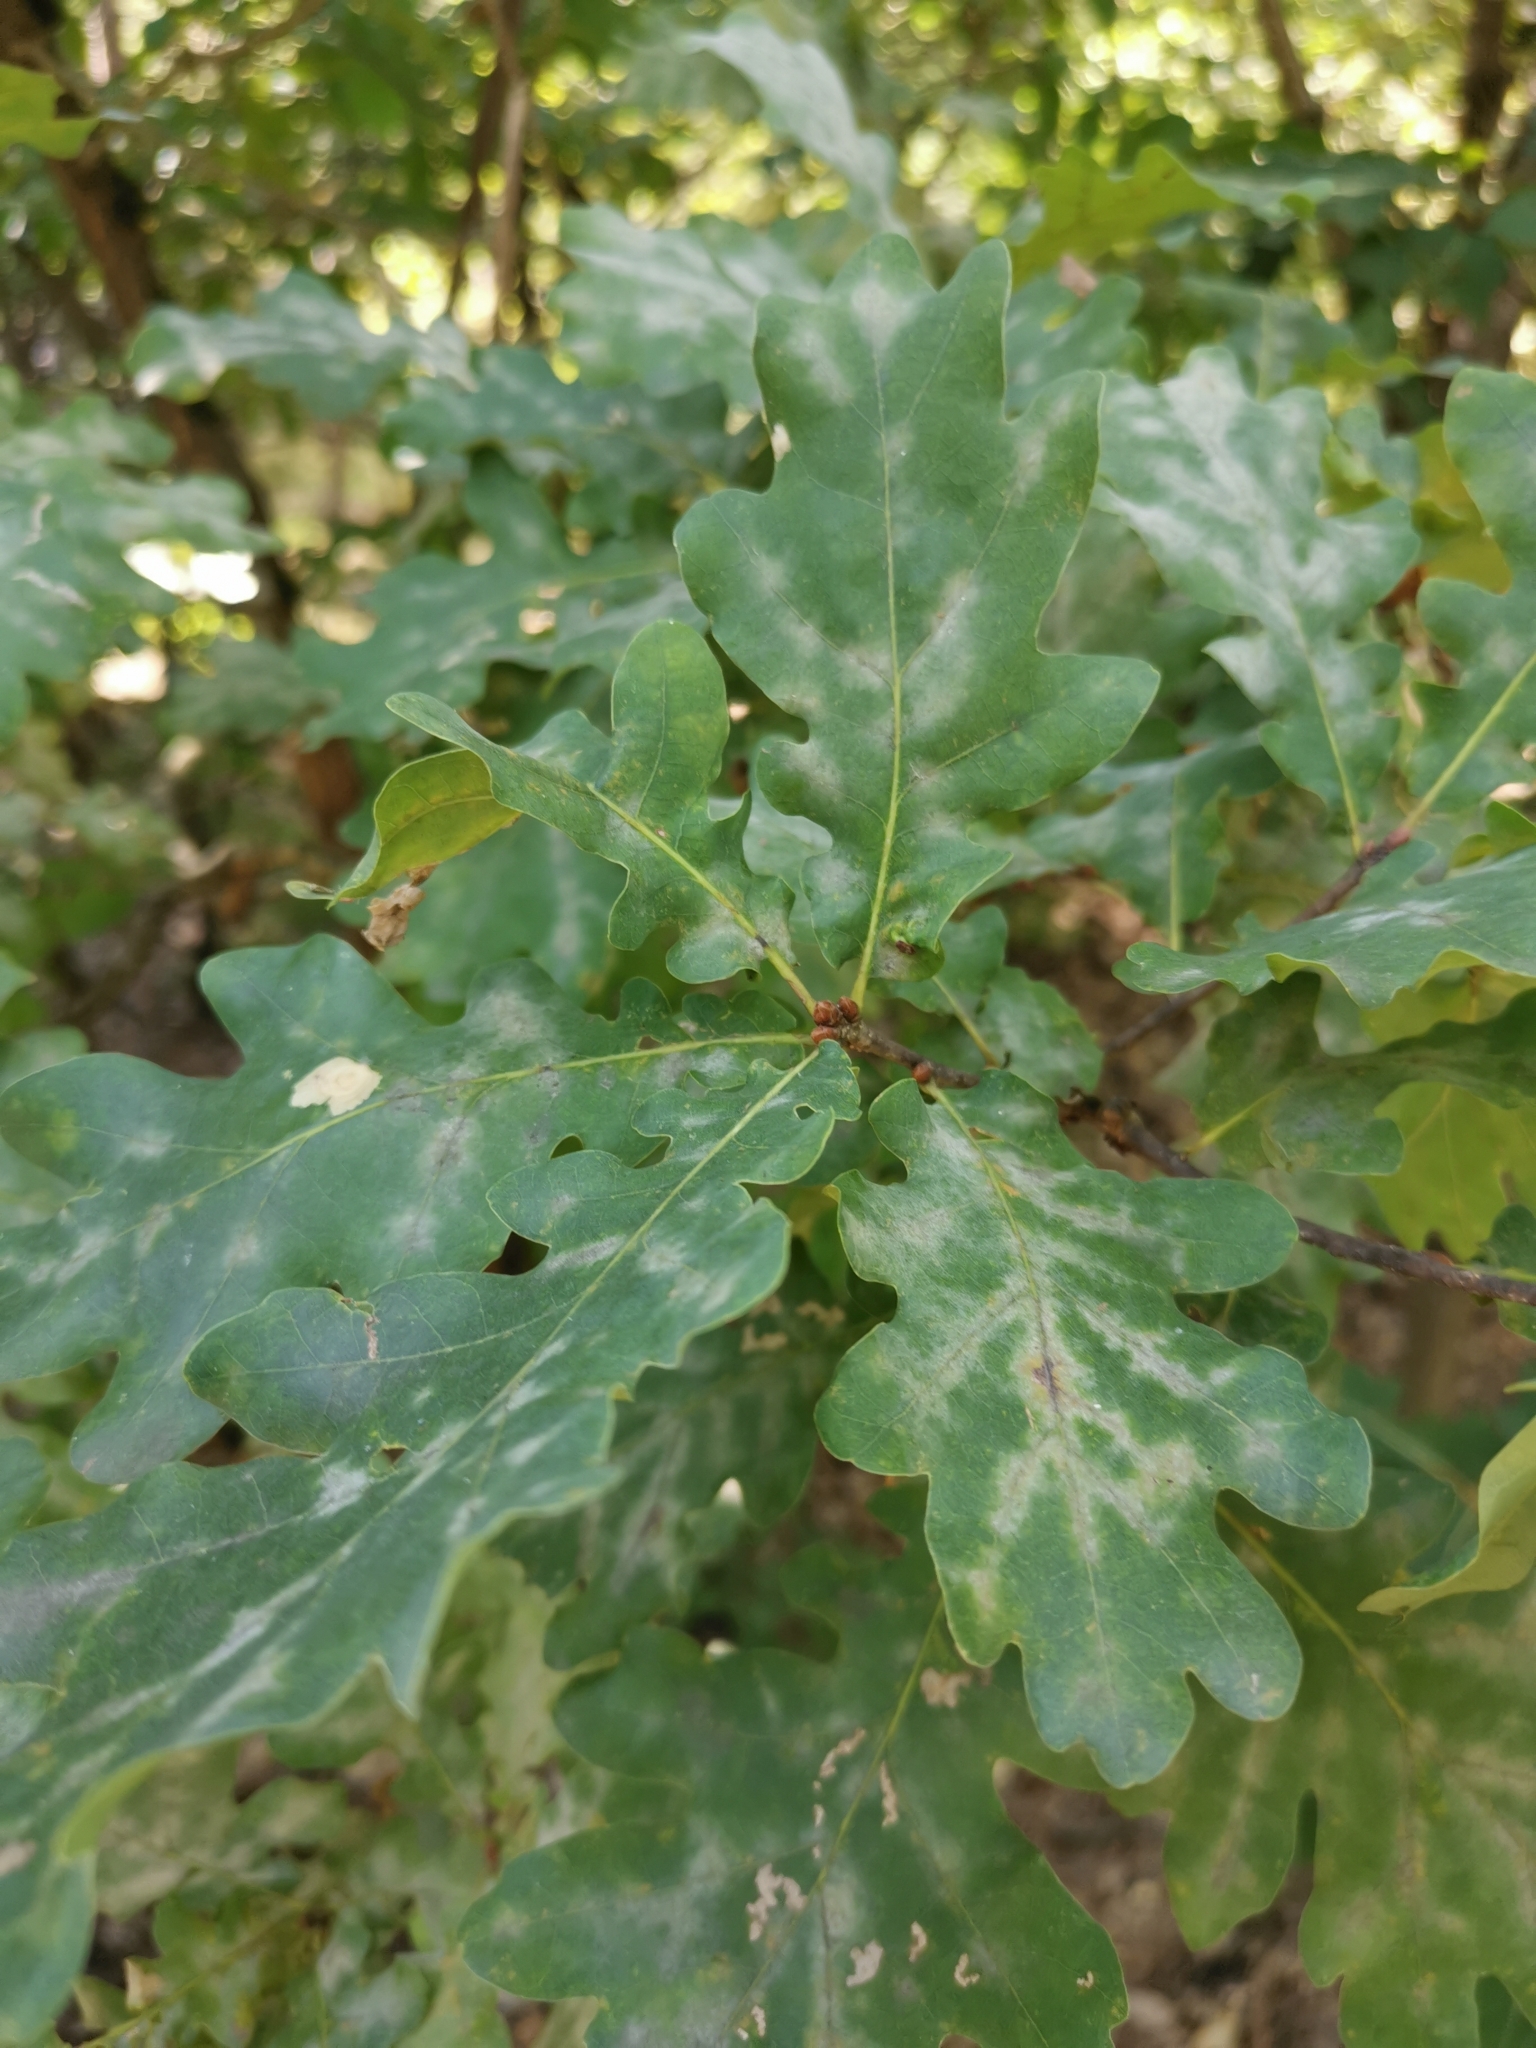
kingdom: Plantae
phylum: Tracheophyta
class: Magnoliopsida
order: Fagales
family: Fagaceae
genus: Quercus
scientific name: Quercus robur
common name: Pedunculate oak
